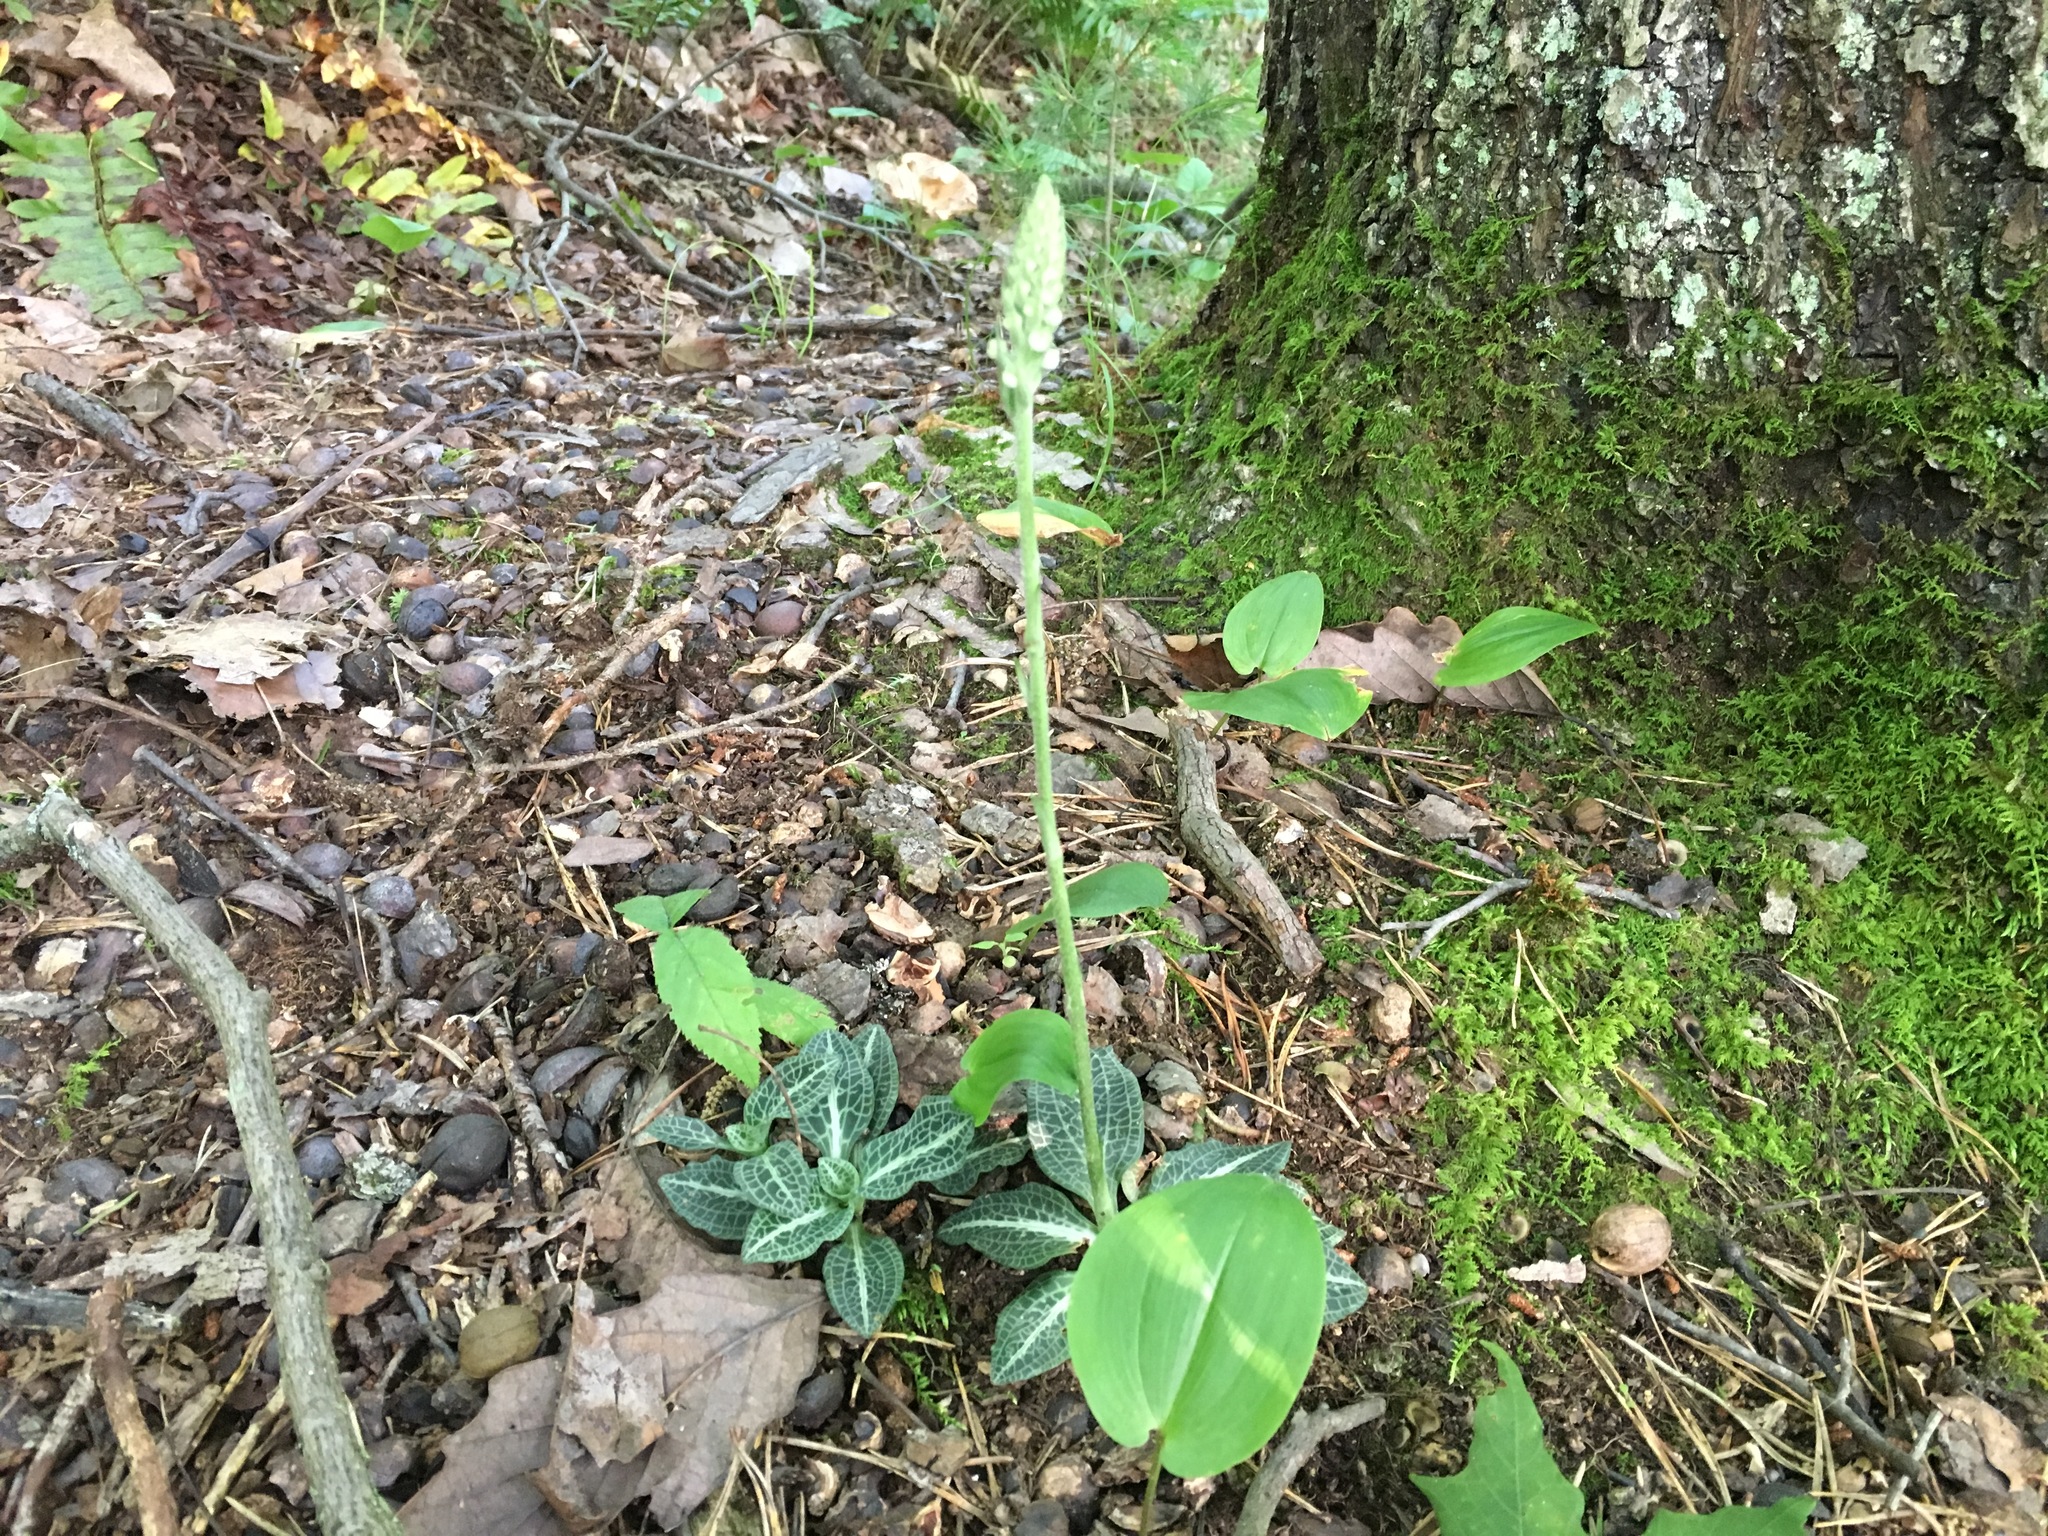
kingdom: Plantae
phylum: Tracheophyta
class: Liliopsida
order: Asparagales
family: Orchidaceae
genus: Goodyera
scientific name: Goodyera pubescens
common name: Downy rattlesnake-plantain
